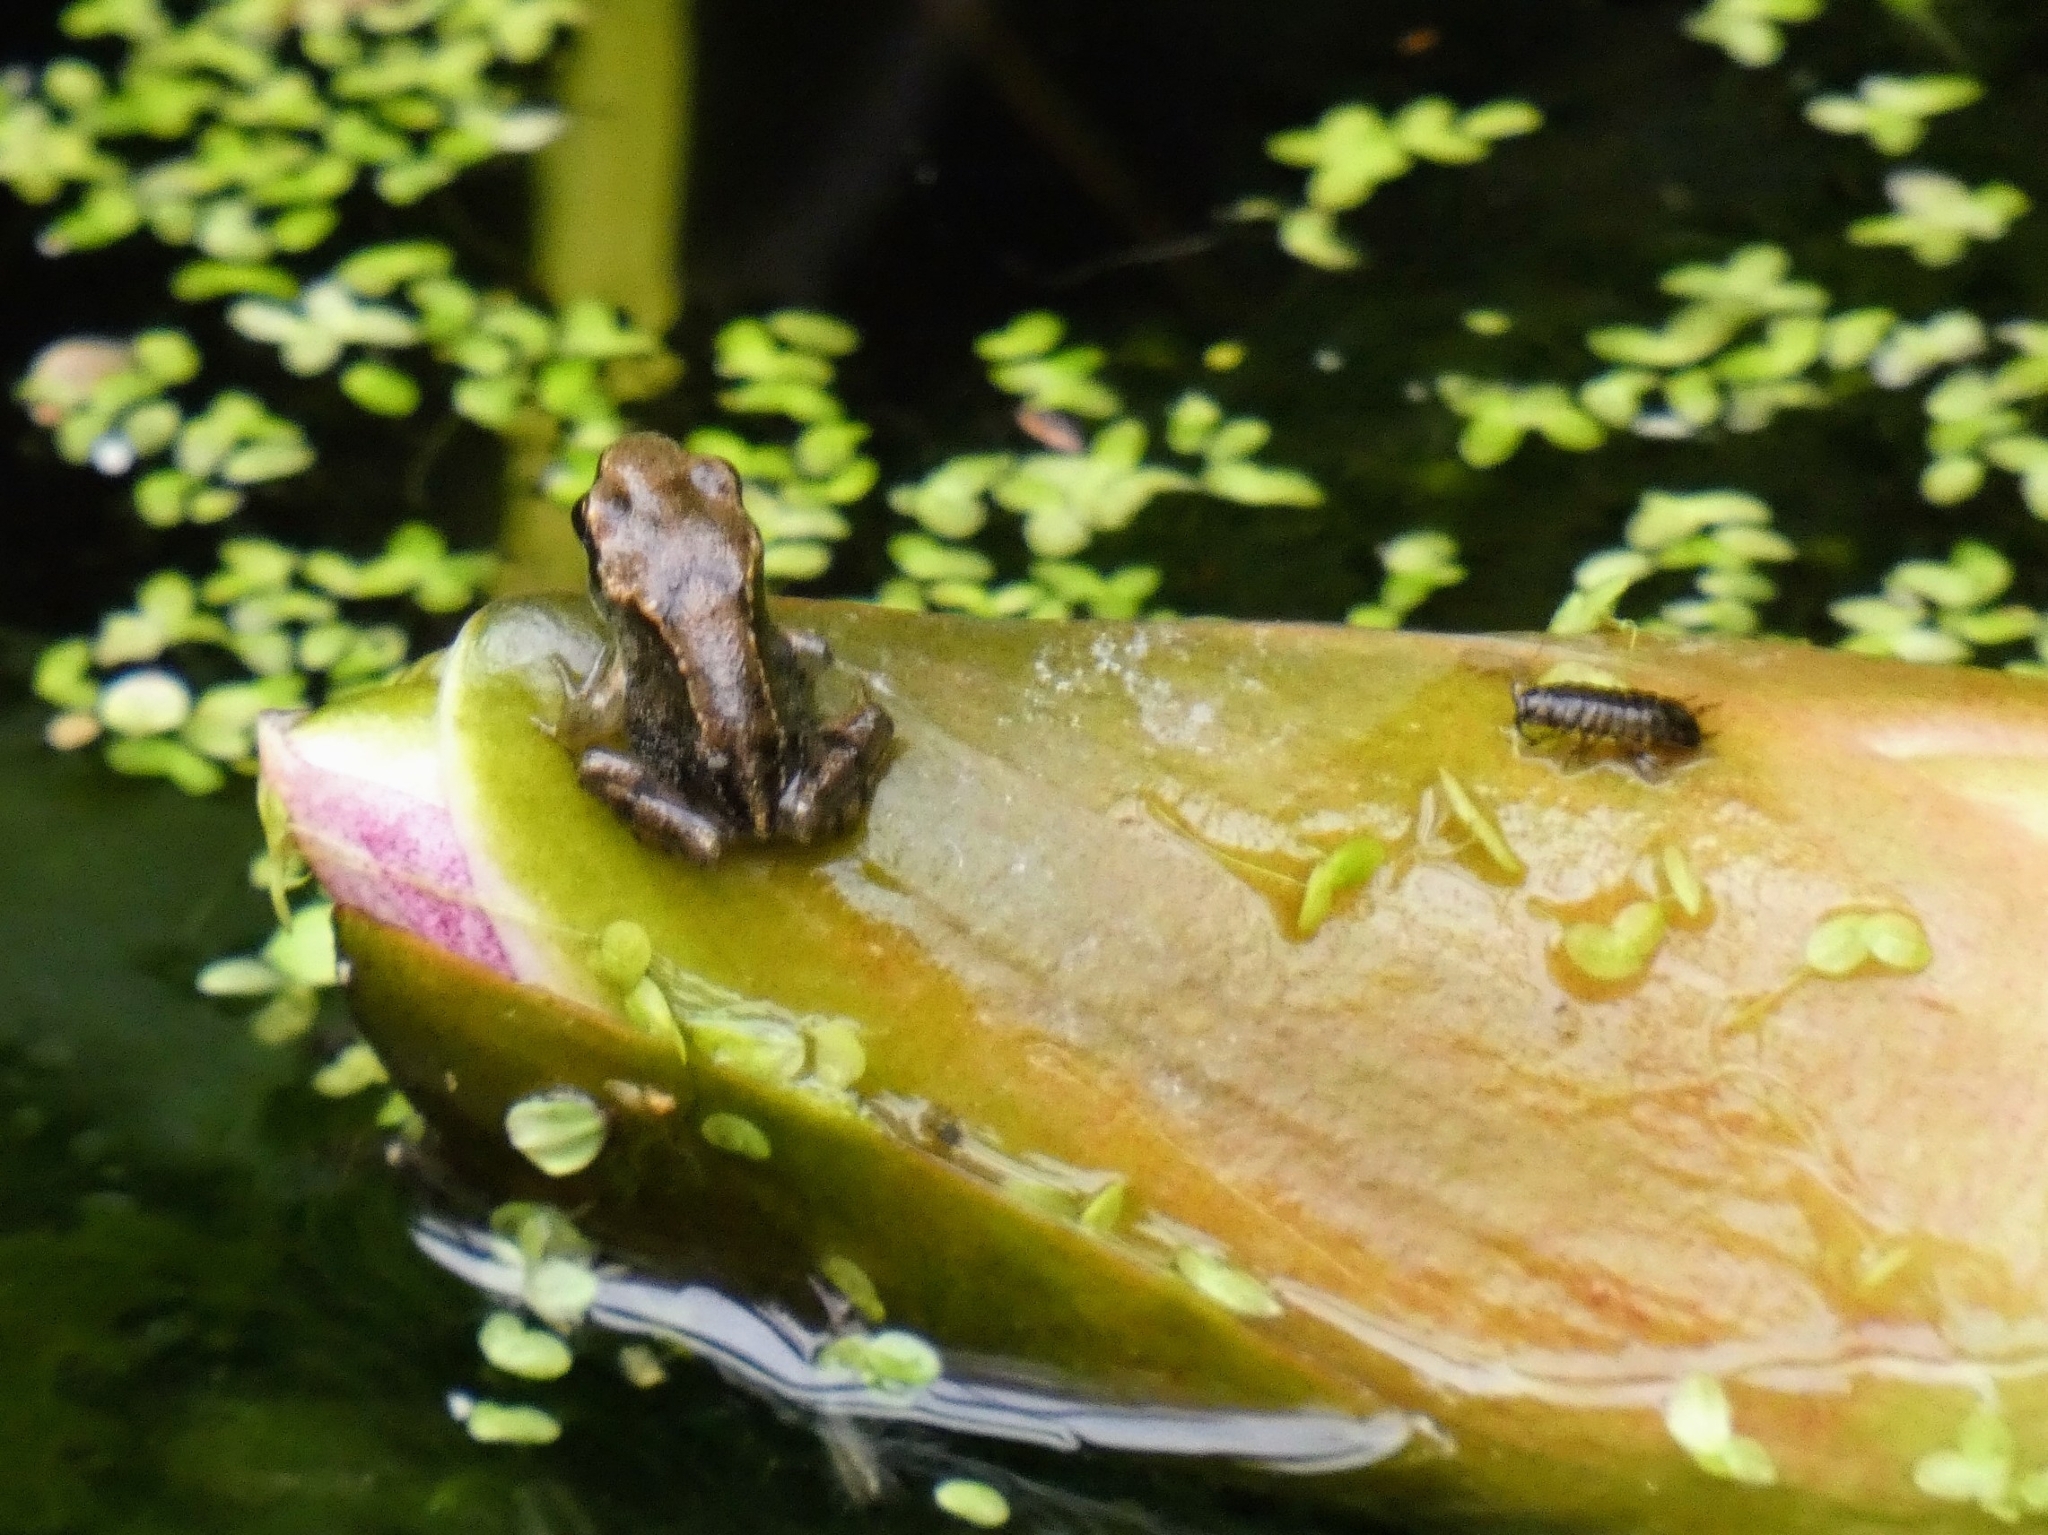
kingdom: Animalia
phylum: Chordata
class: Amphibia
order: Anura
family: Ranidae
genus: Rana
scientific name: Rana temporaria
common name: Common frog
